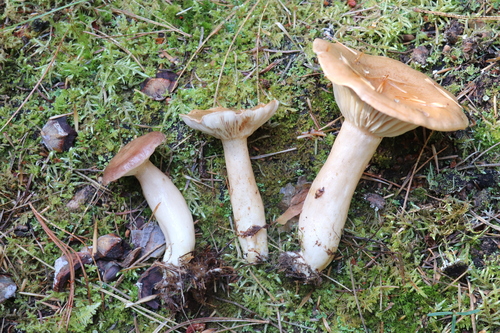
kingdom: Fungi
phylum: Basidiomycota
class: Agaricomycetes
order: Russulales
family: Russulaceae
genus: Lactarius
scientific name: Lactarius trivialis
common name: Tacked milkcap
